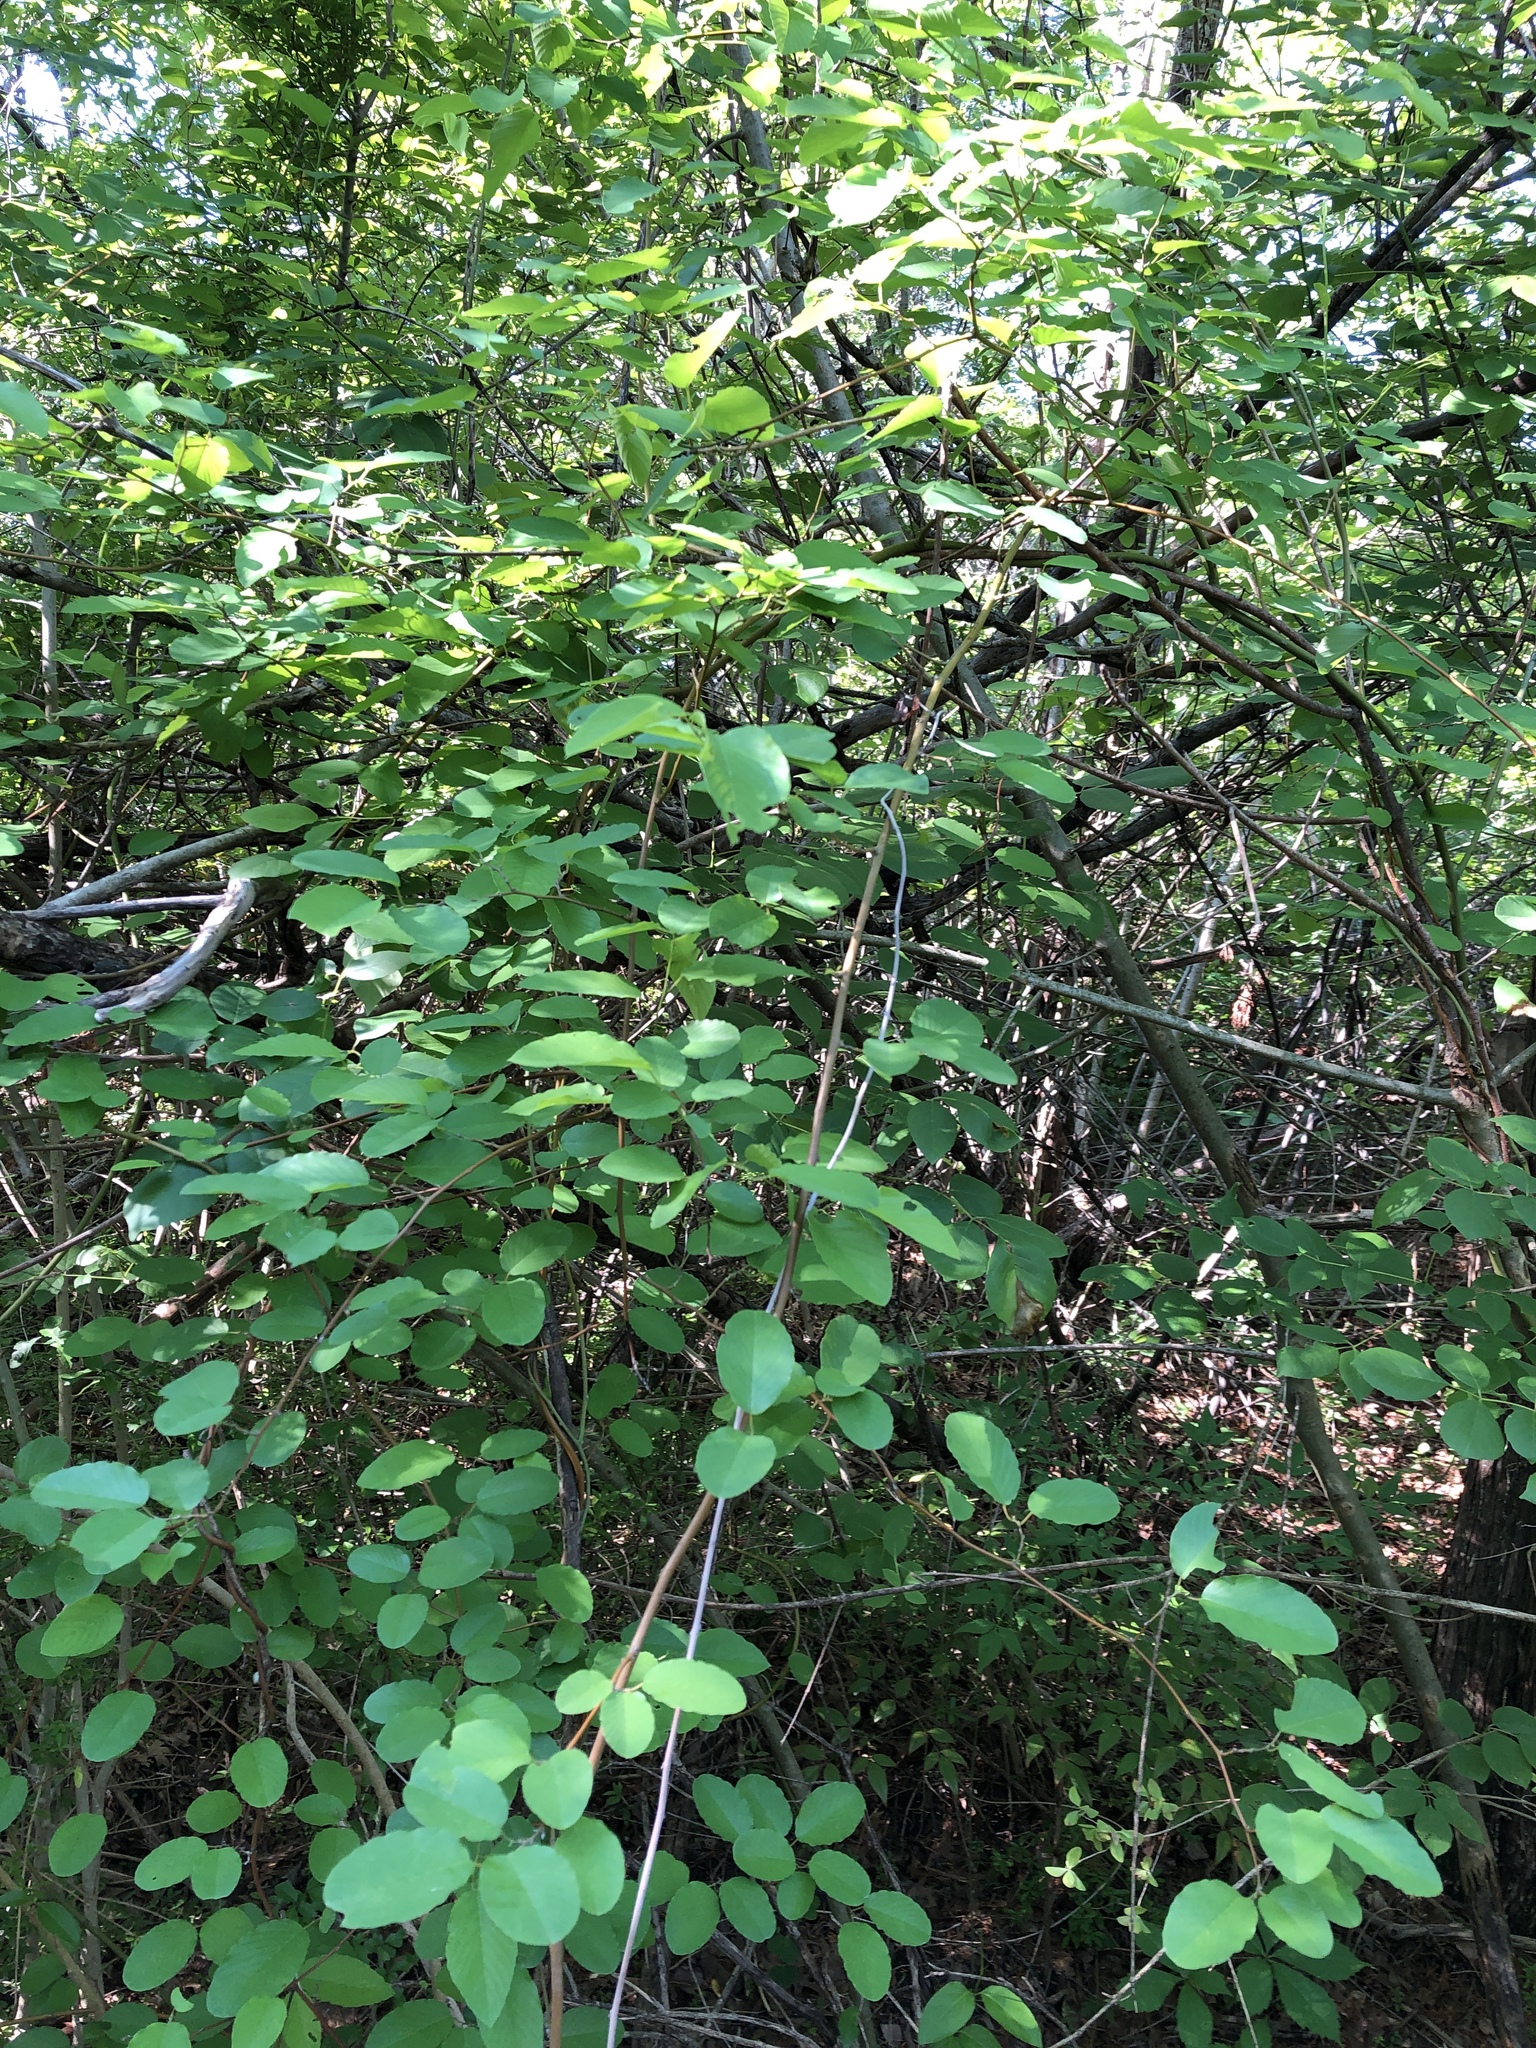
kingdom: Plantae
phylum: Tracheophyta
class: Magnoliopsida
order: Rosales
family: Rhamnaceae
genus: Berchemia
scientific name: Berchemia scandens
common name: Supplejack
